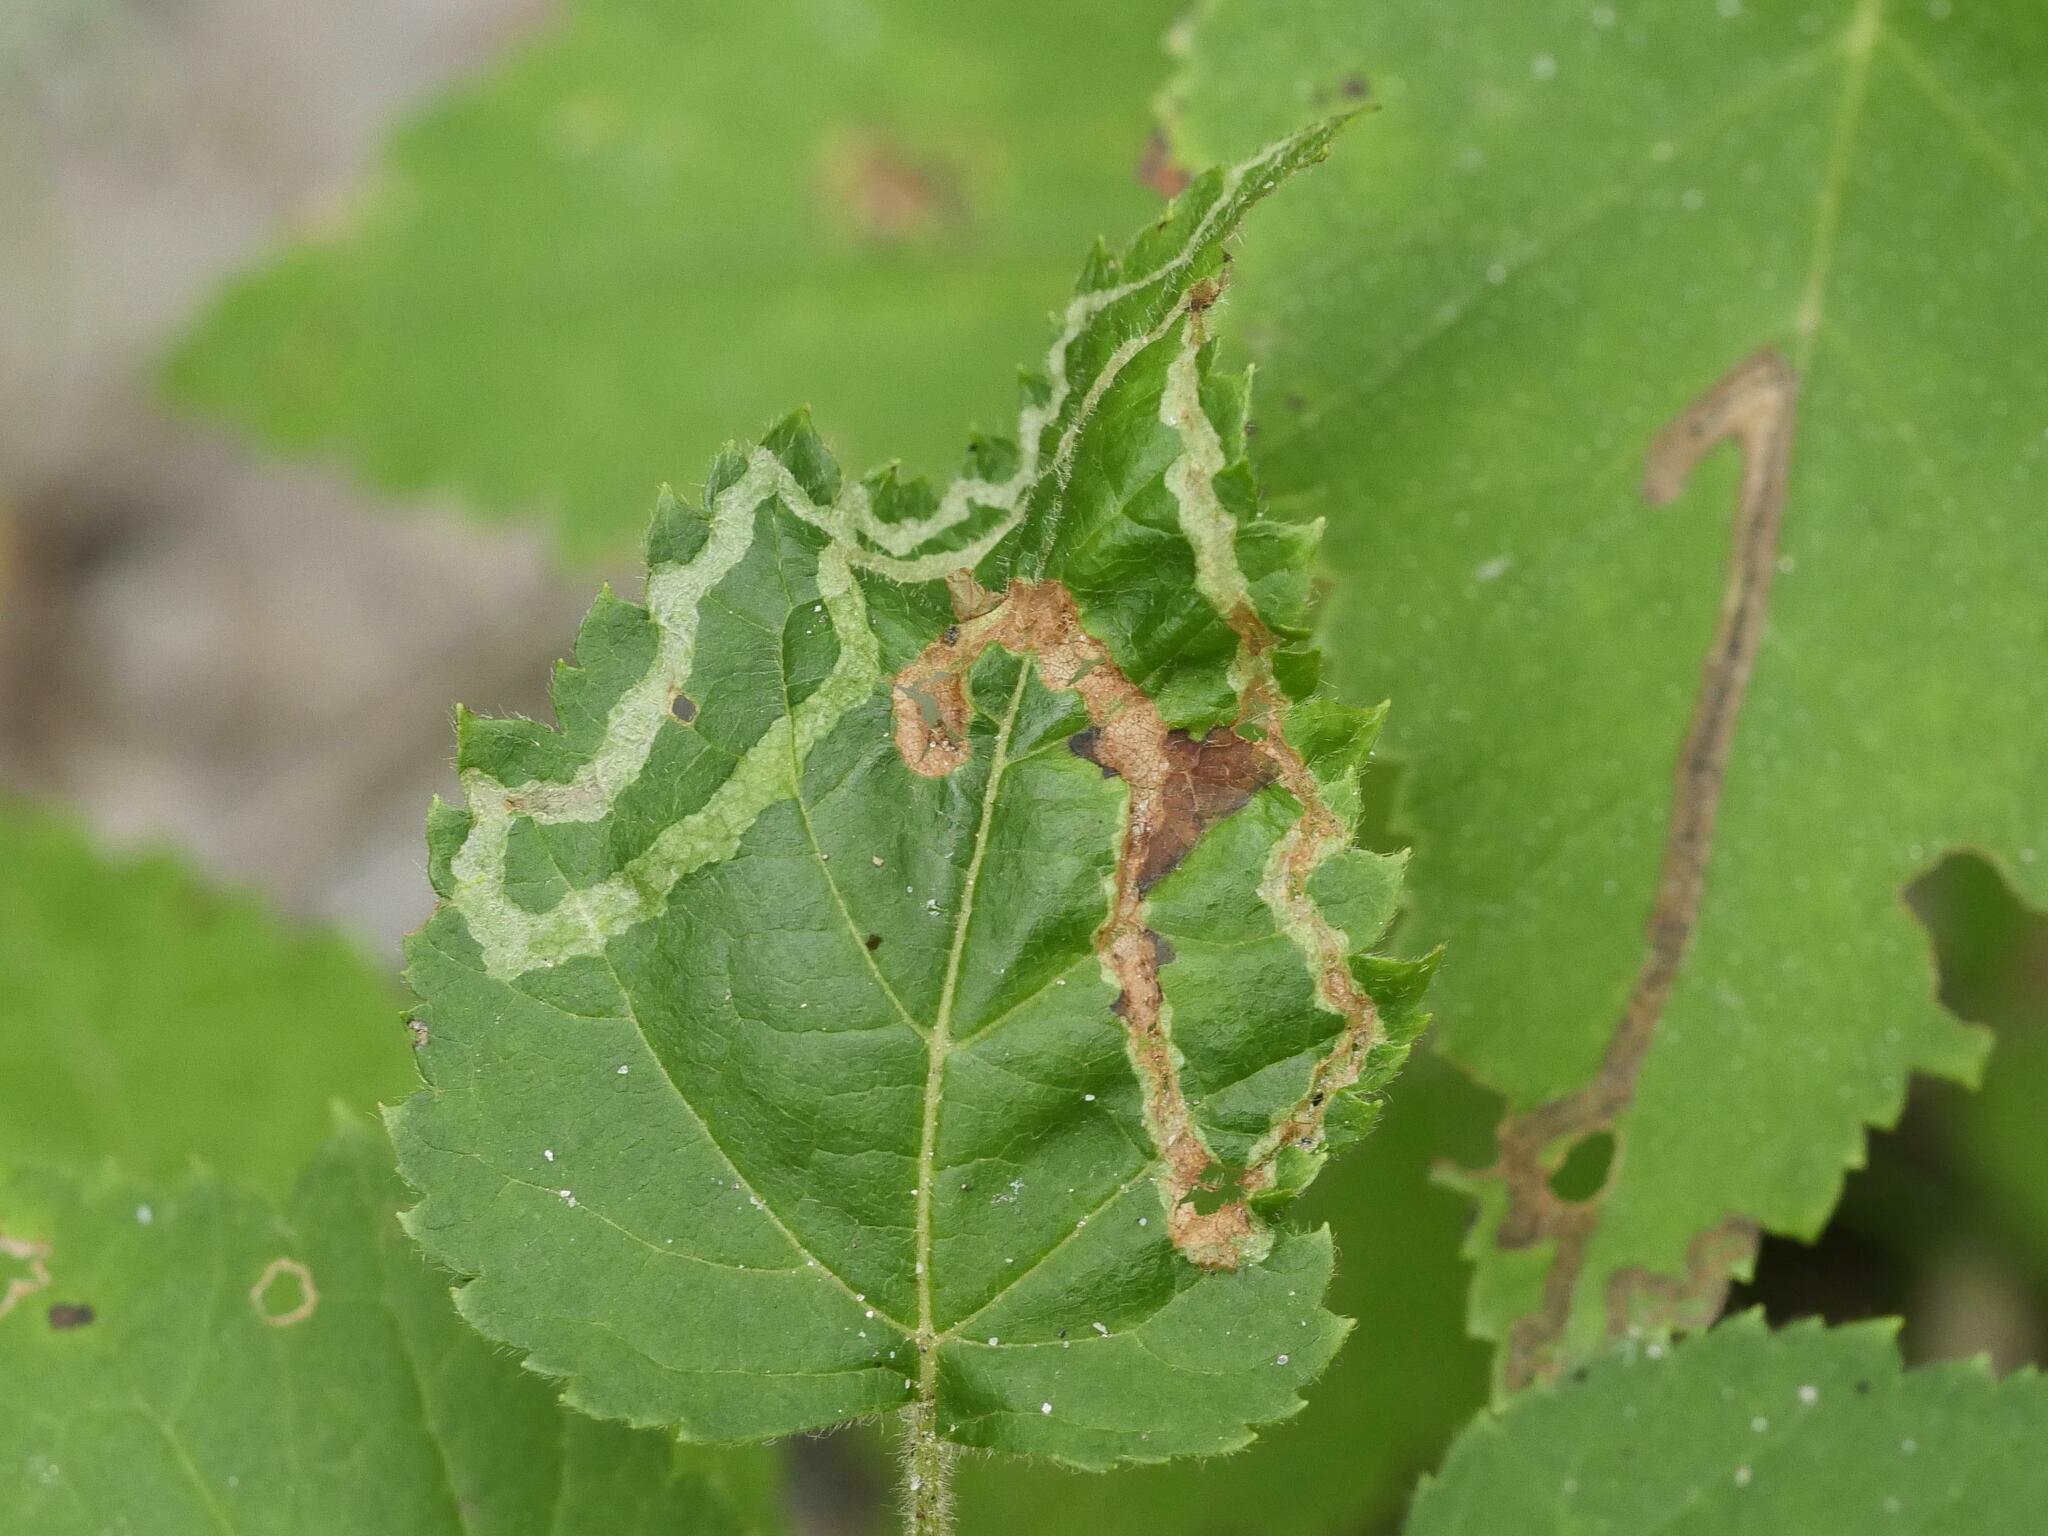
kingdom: Animalia
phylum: Arthropoda
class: Insecta
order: Diptera
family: Agromyzidae
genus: Agromyza
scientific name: Agromyza alnibetulae
